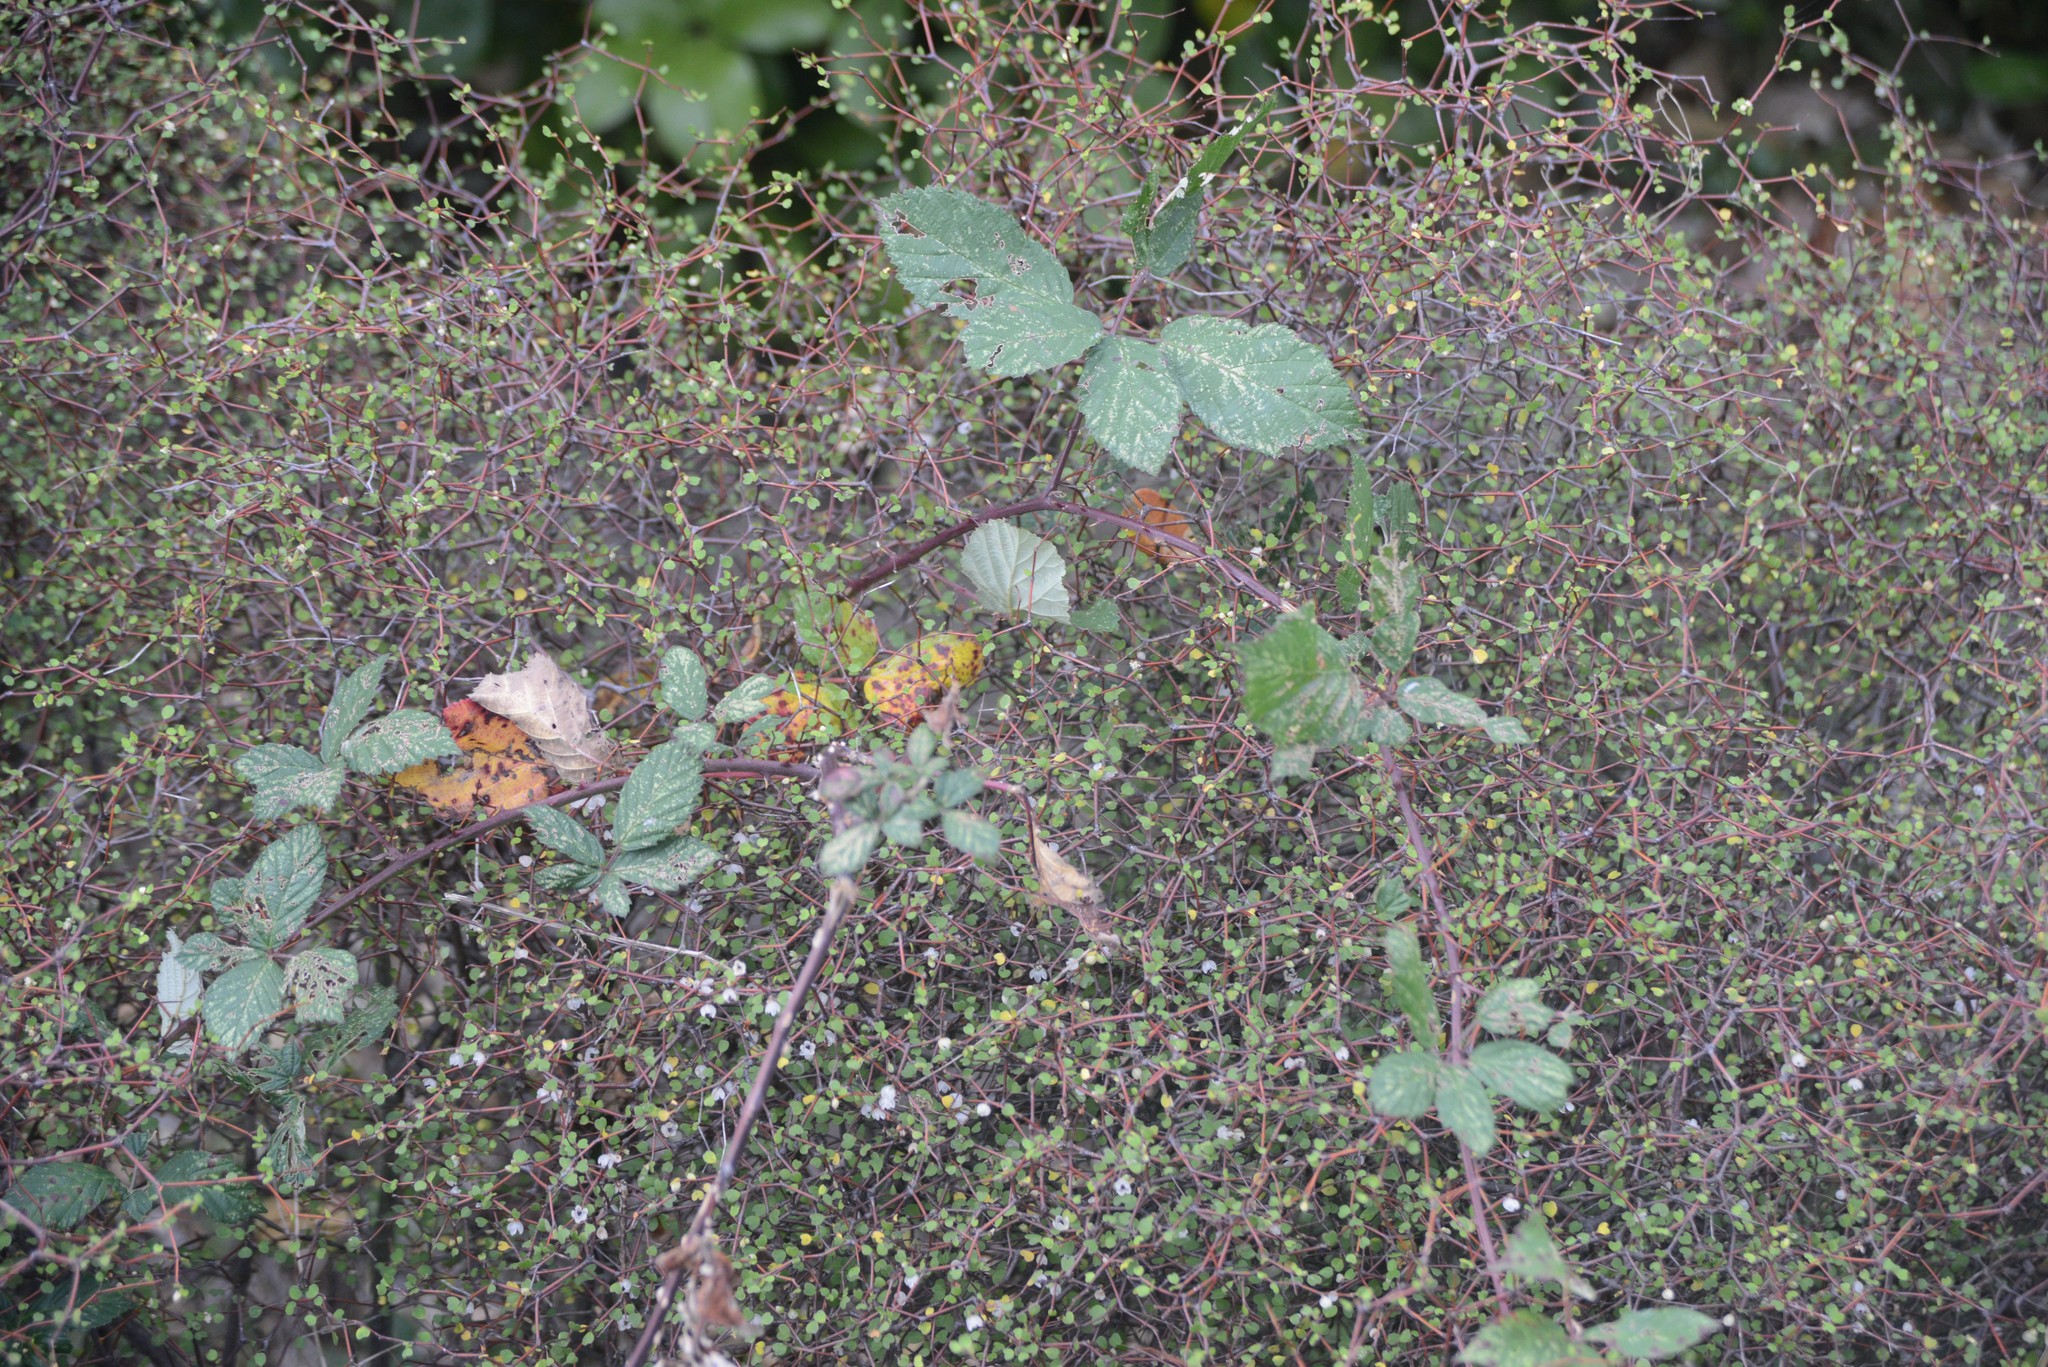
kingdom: Plantae
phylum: Tracheophyta
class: Magnoliopsida
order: Rosales
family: Rosaceae
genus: Rubus
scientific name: Rubus
